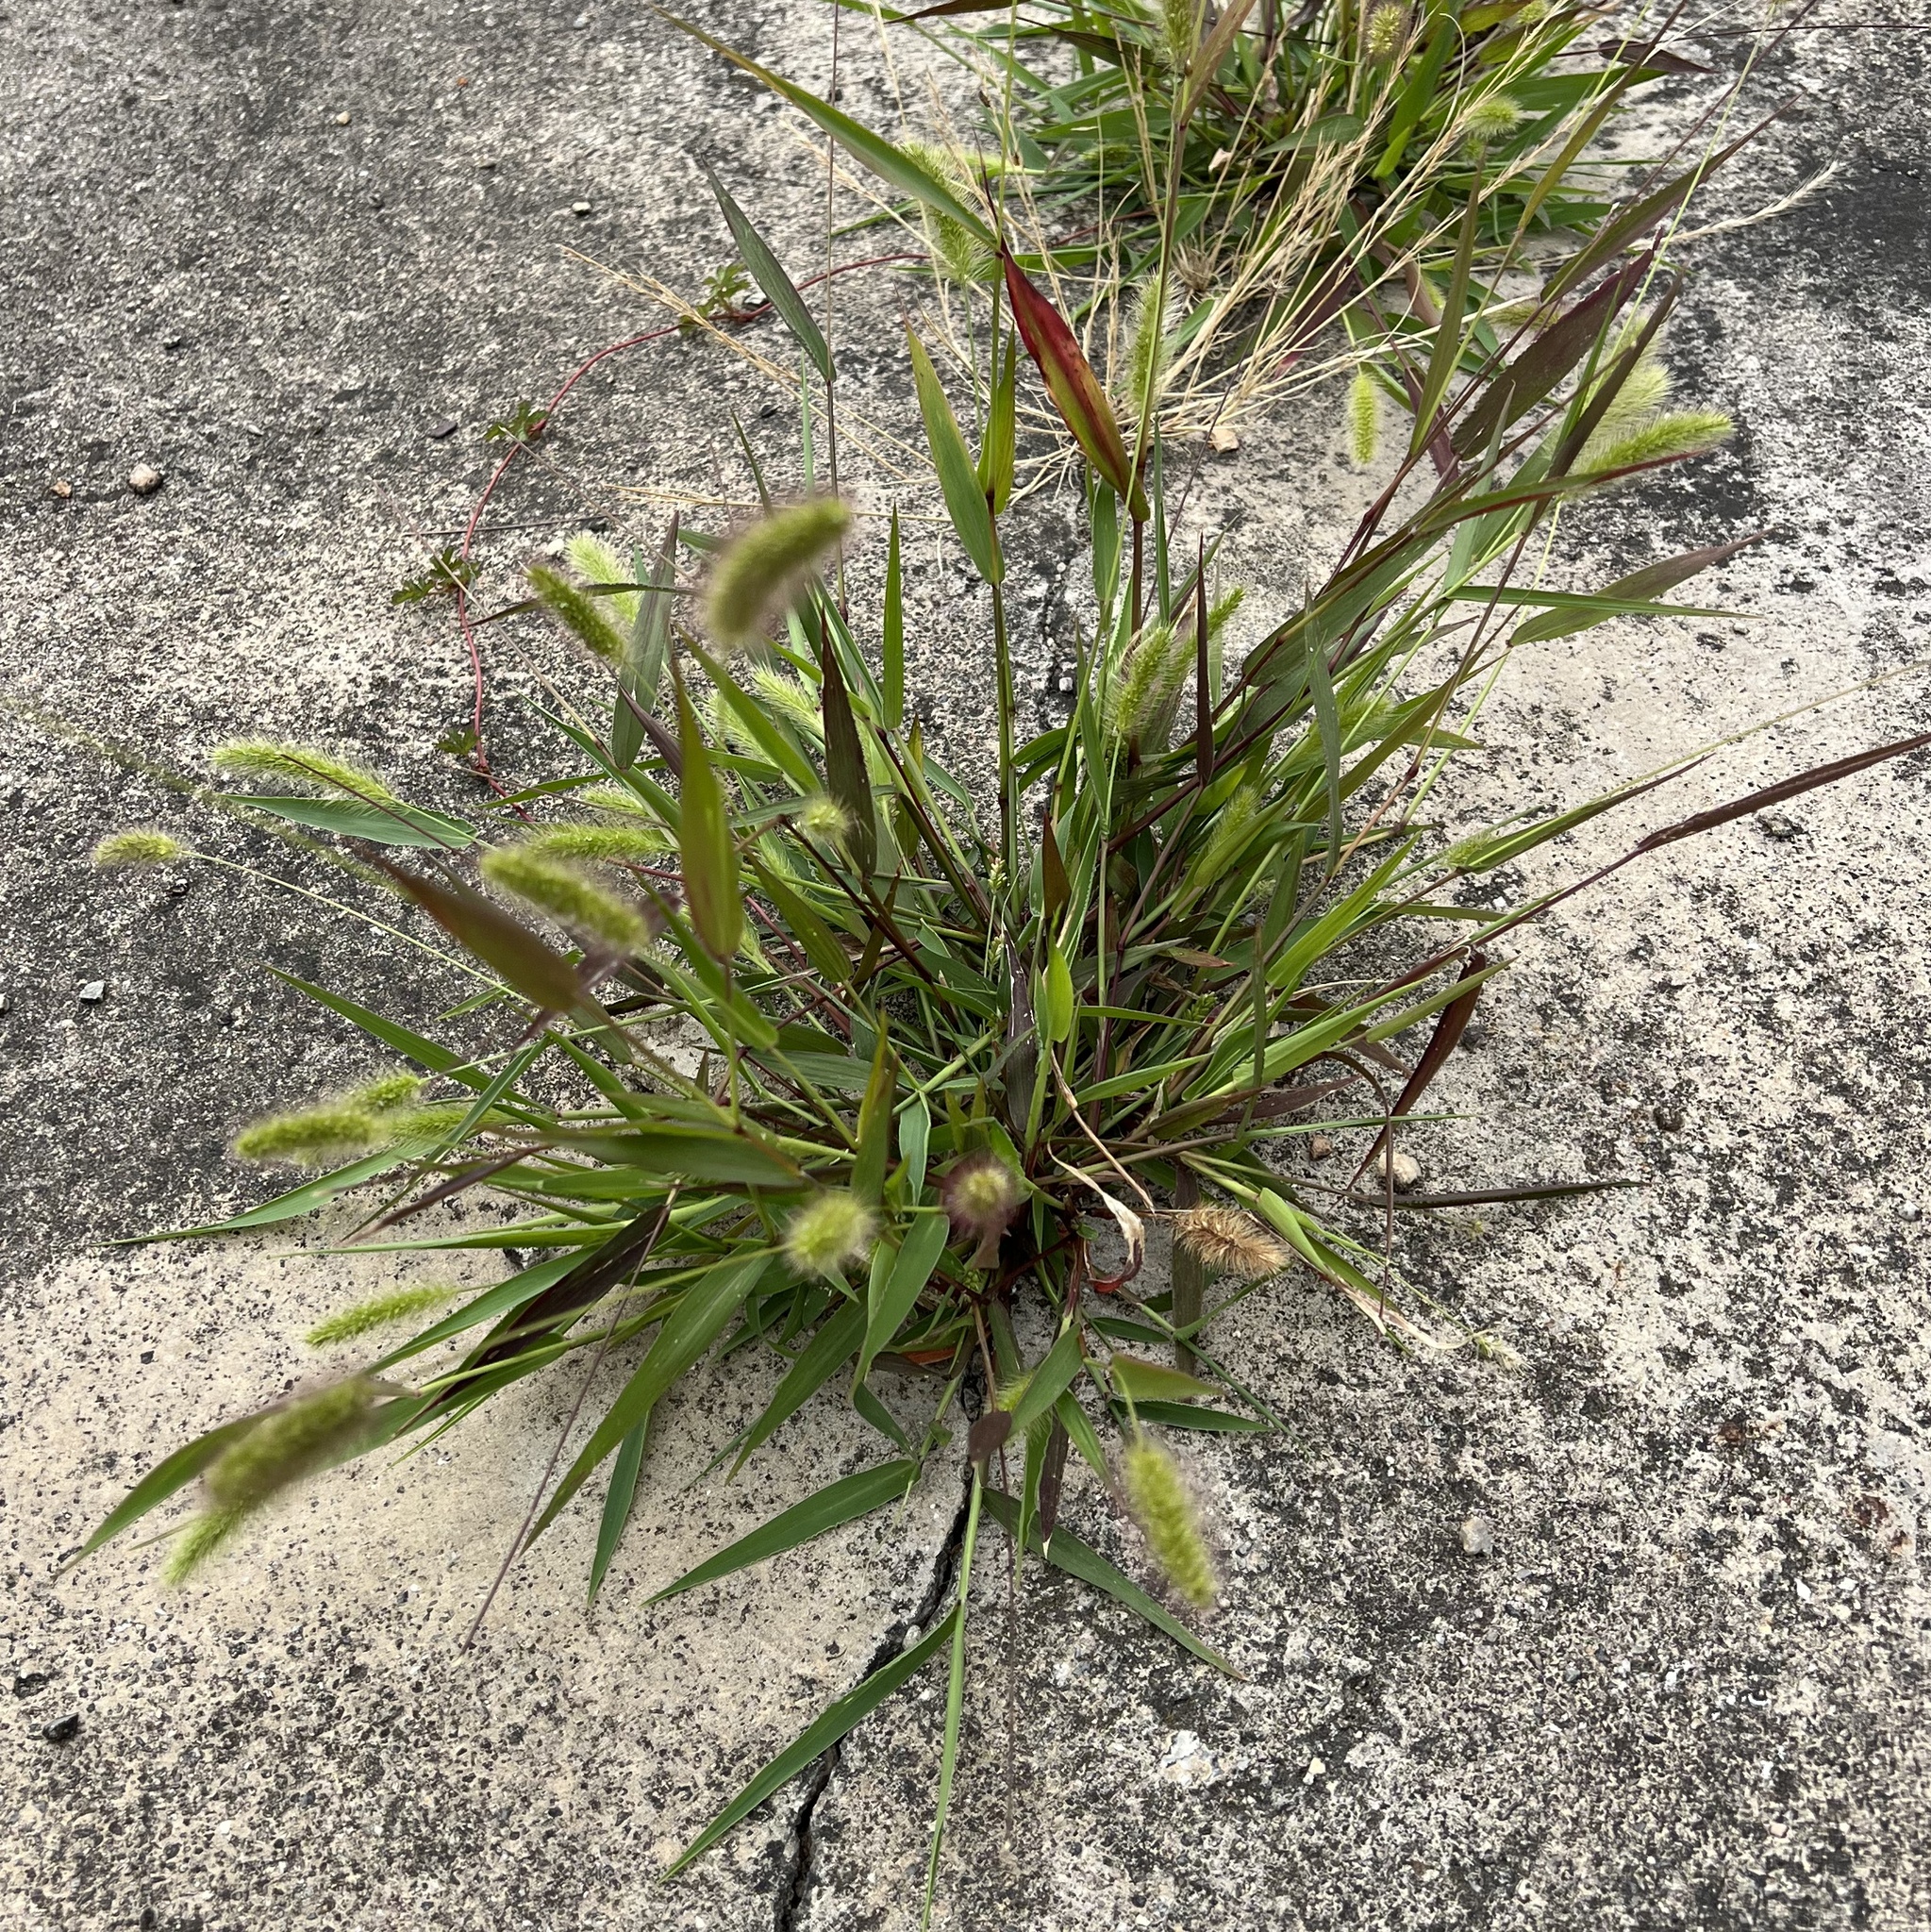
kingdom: Plantae
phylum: Tracheophyta
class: Liliopsida
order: Poales
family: Poaceae
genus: Setaria
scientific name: Setaria viridis
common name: Green bristlegrass
